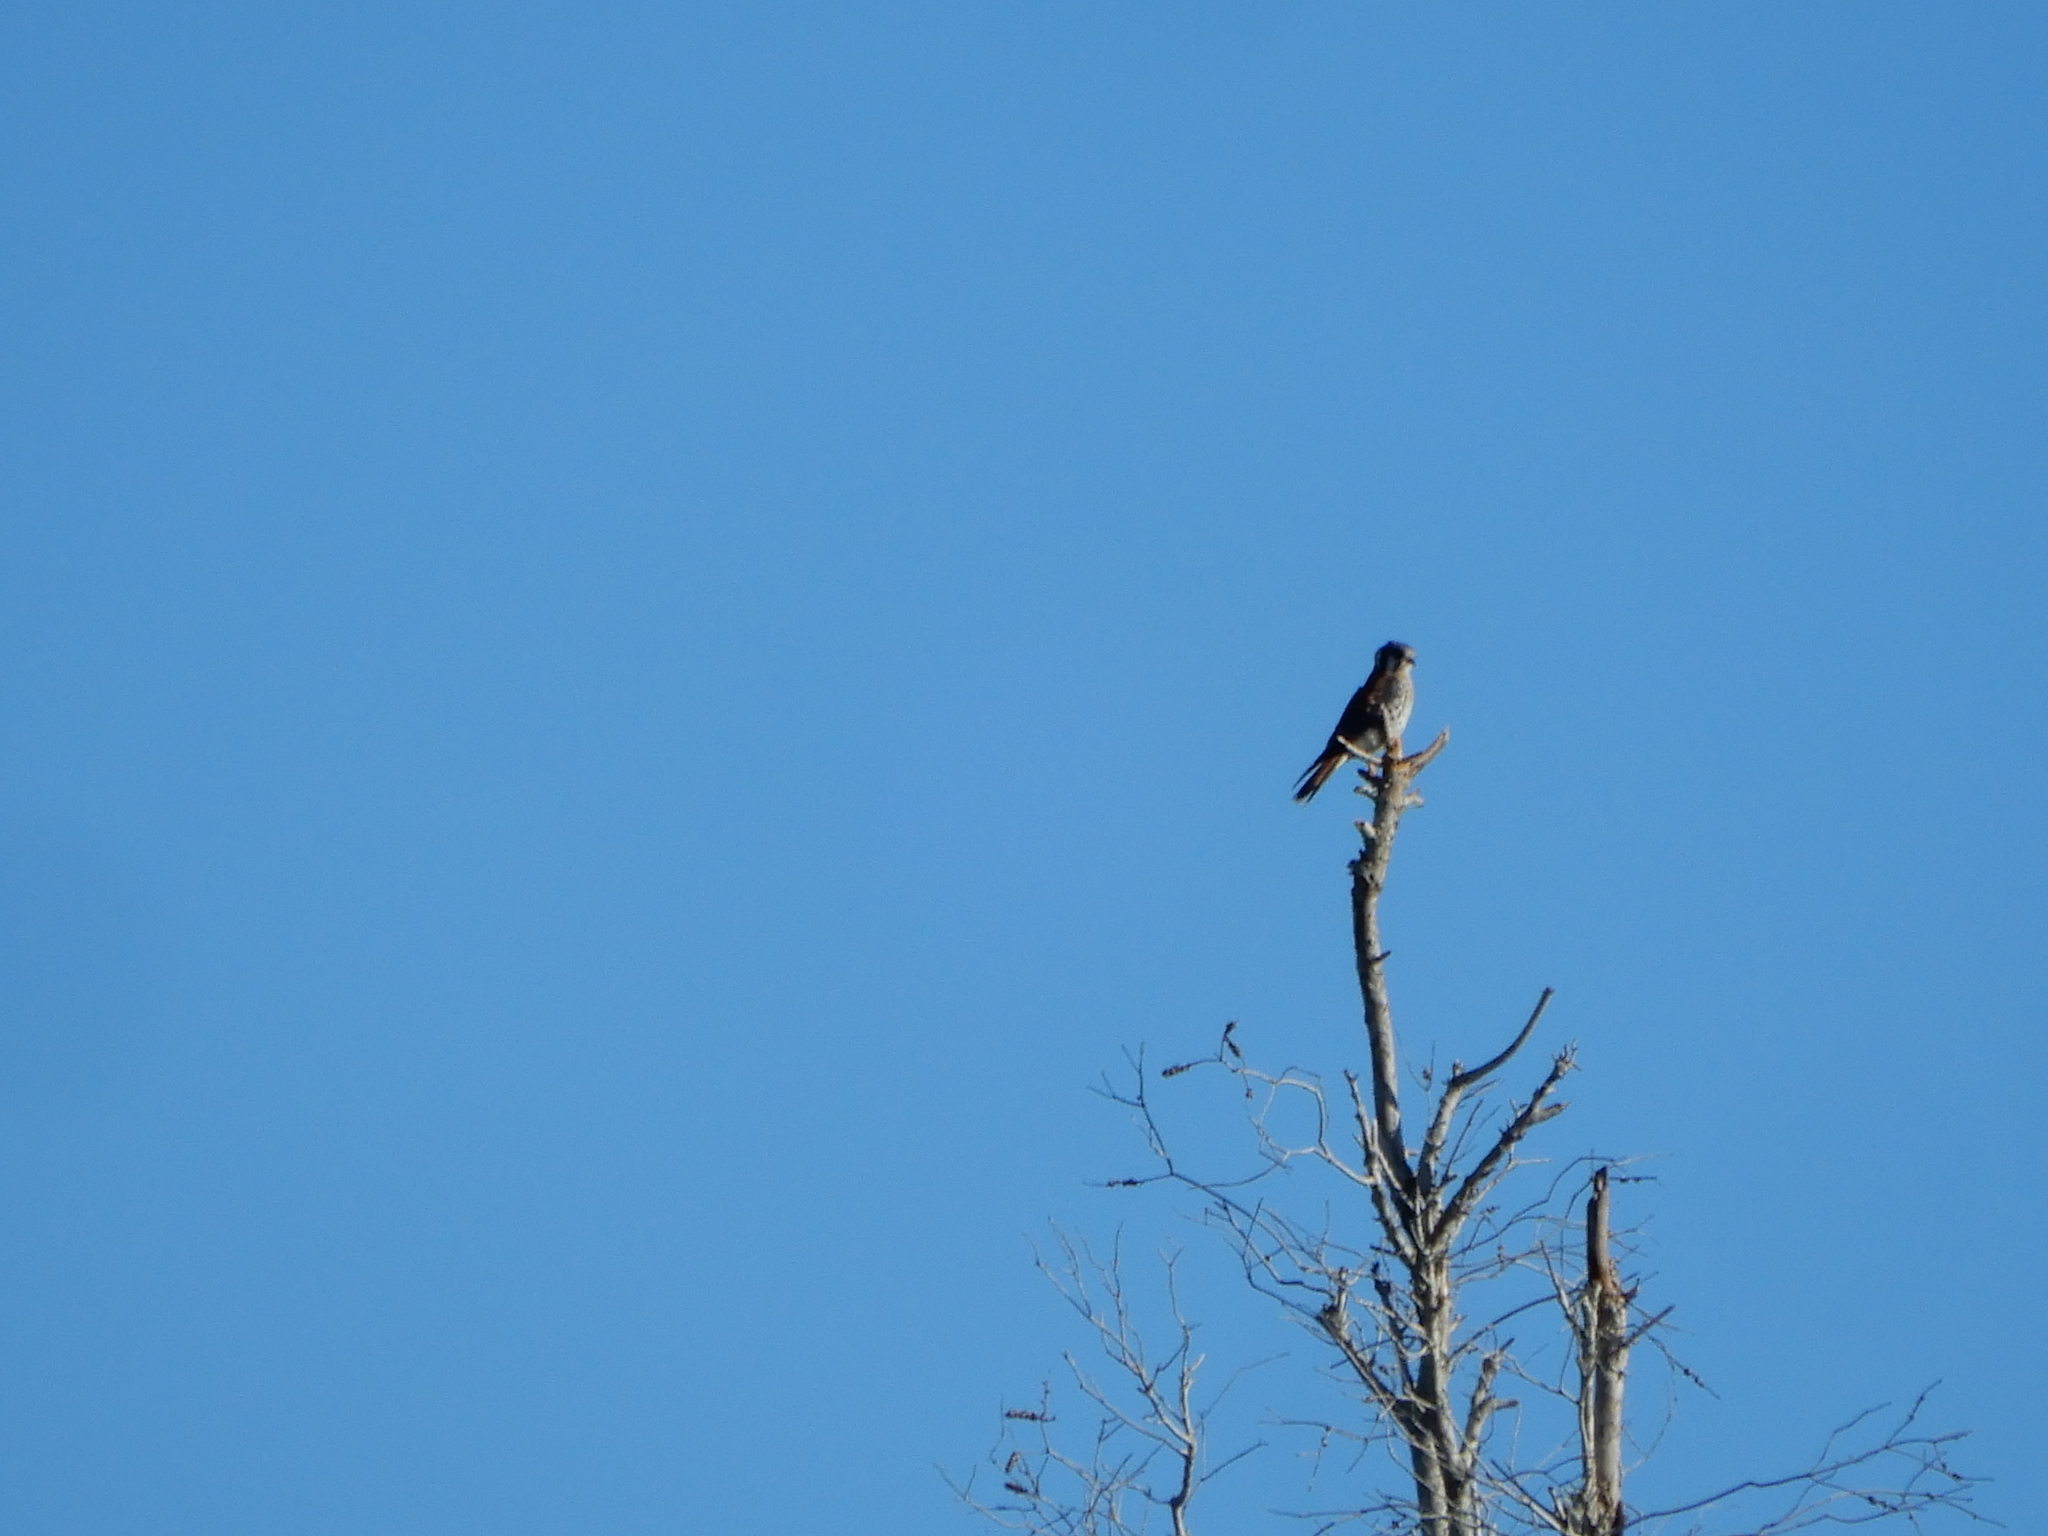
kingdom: Animalia
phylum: Chordata
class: Aves
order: Falconiformes
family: Falconidae
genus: Falco
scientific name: Falco sparverius
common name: American kestrel
